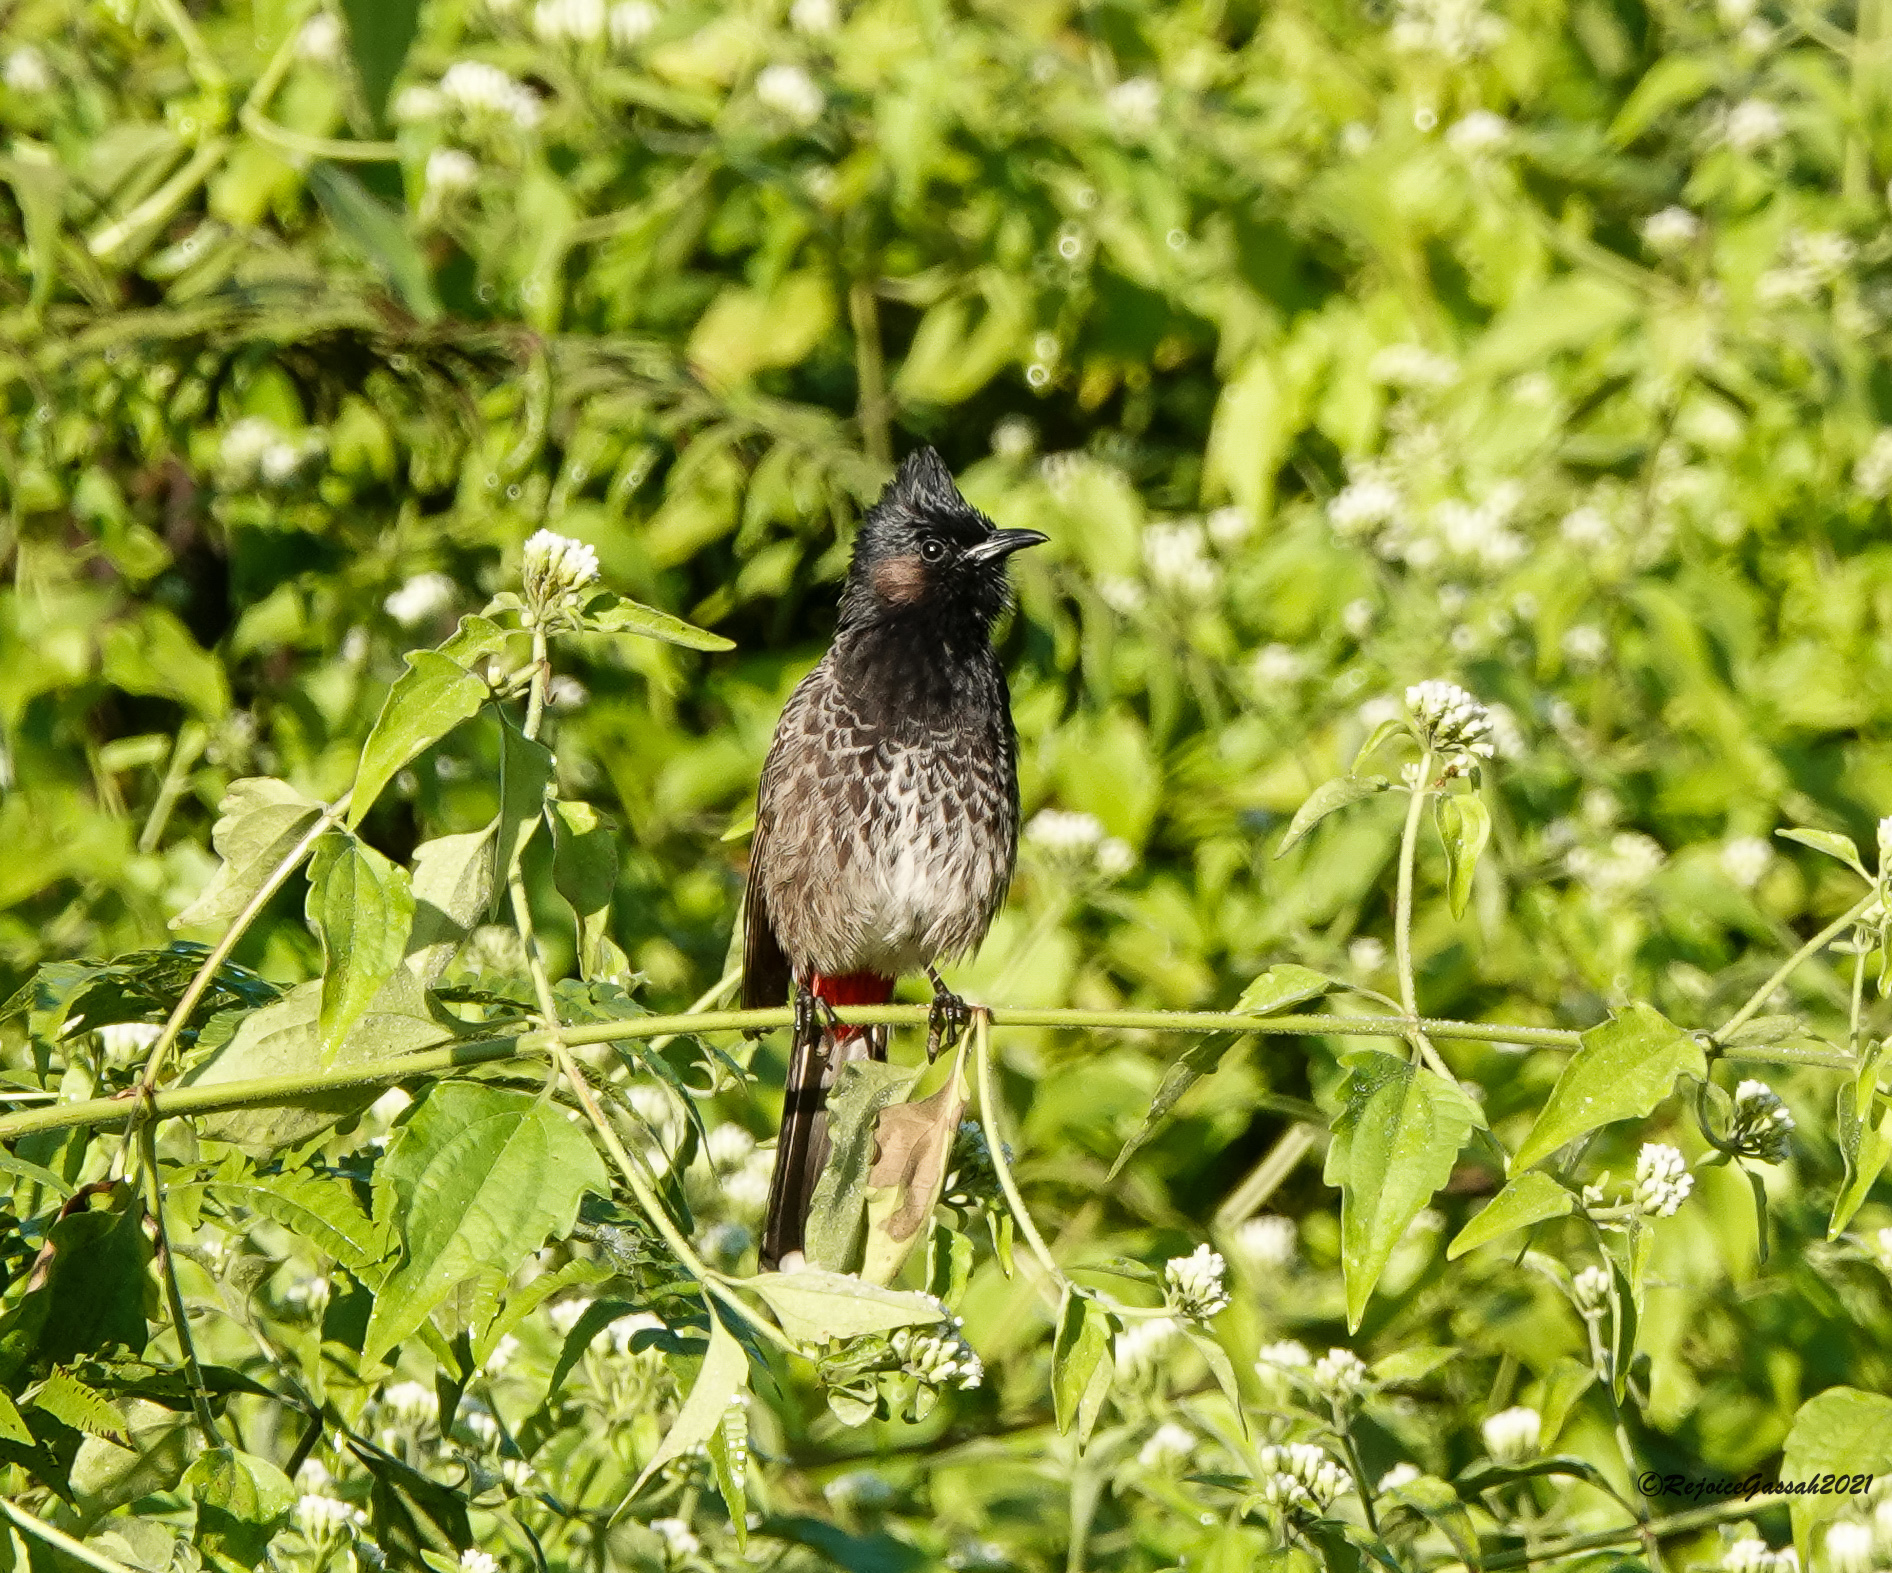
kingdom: Animalia
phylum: Chordata
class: Aves
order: Passeriformes
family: Pycnonotidae
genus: Pycnonotus
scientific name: Pycnonotus cafer
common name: Red-vented bulbul
